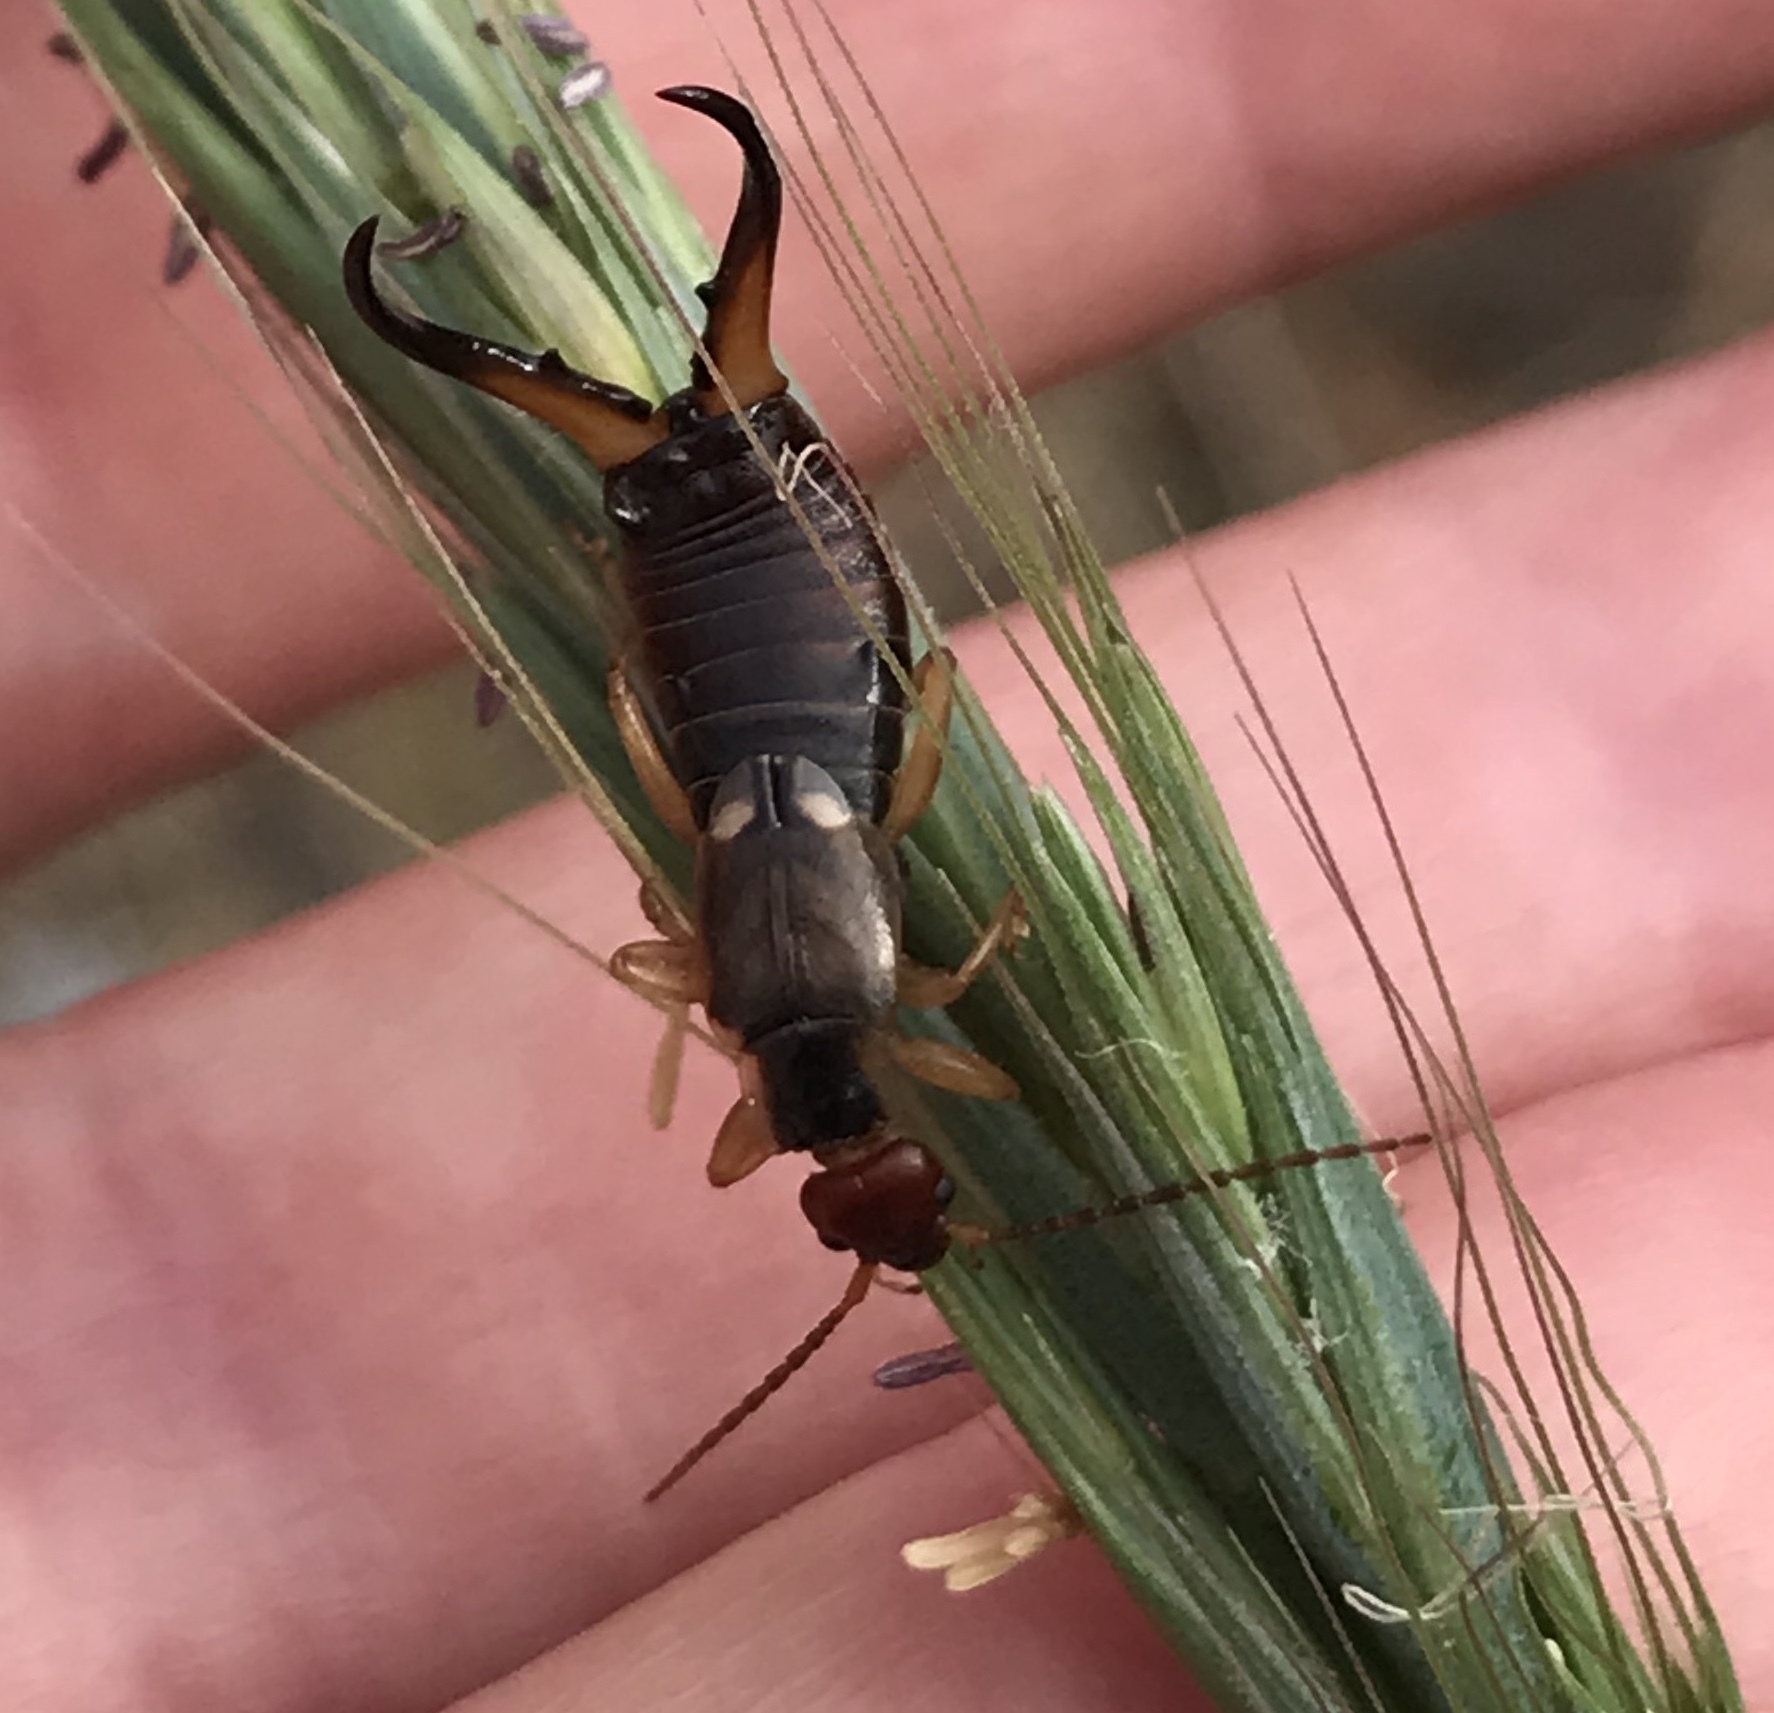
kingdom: Animalia
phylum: Arthropoda
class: Insecta
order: Dermaptera
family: Forficulidae
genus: Forficula
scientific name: Forficula
